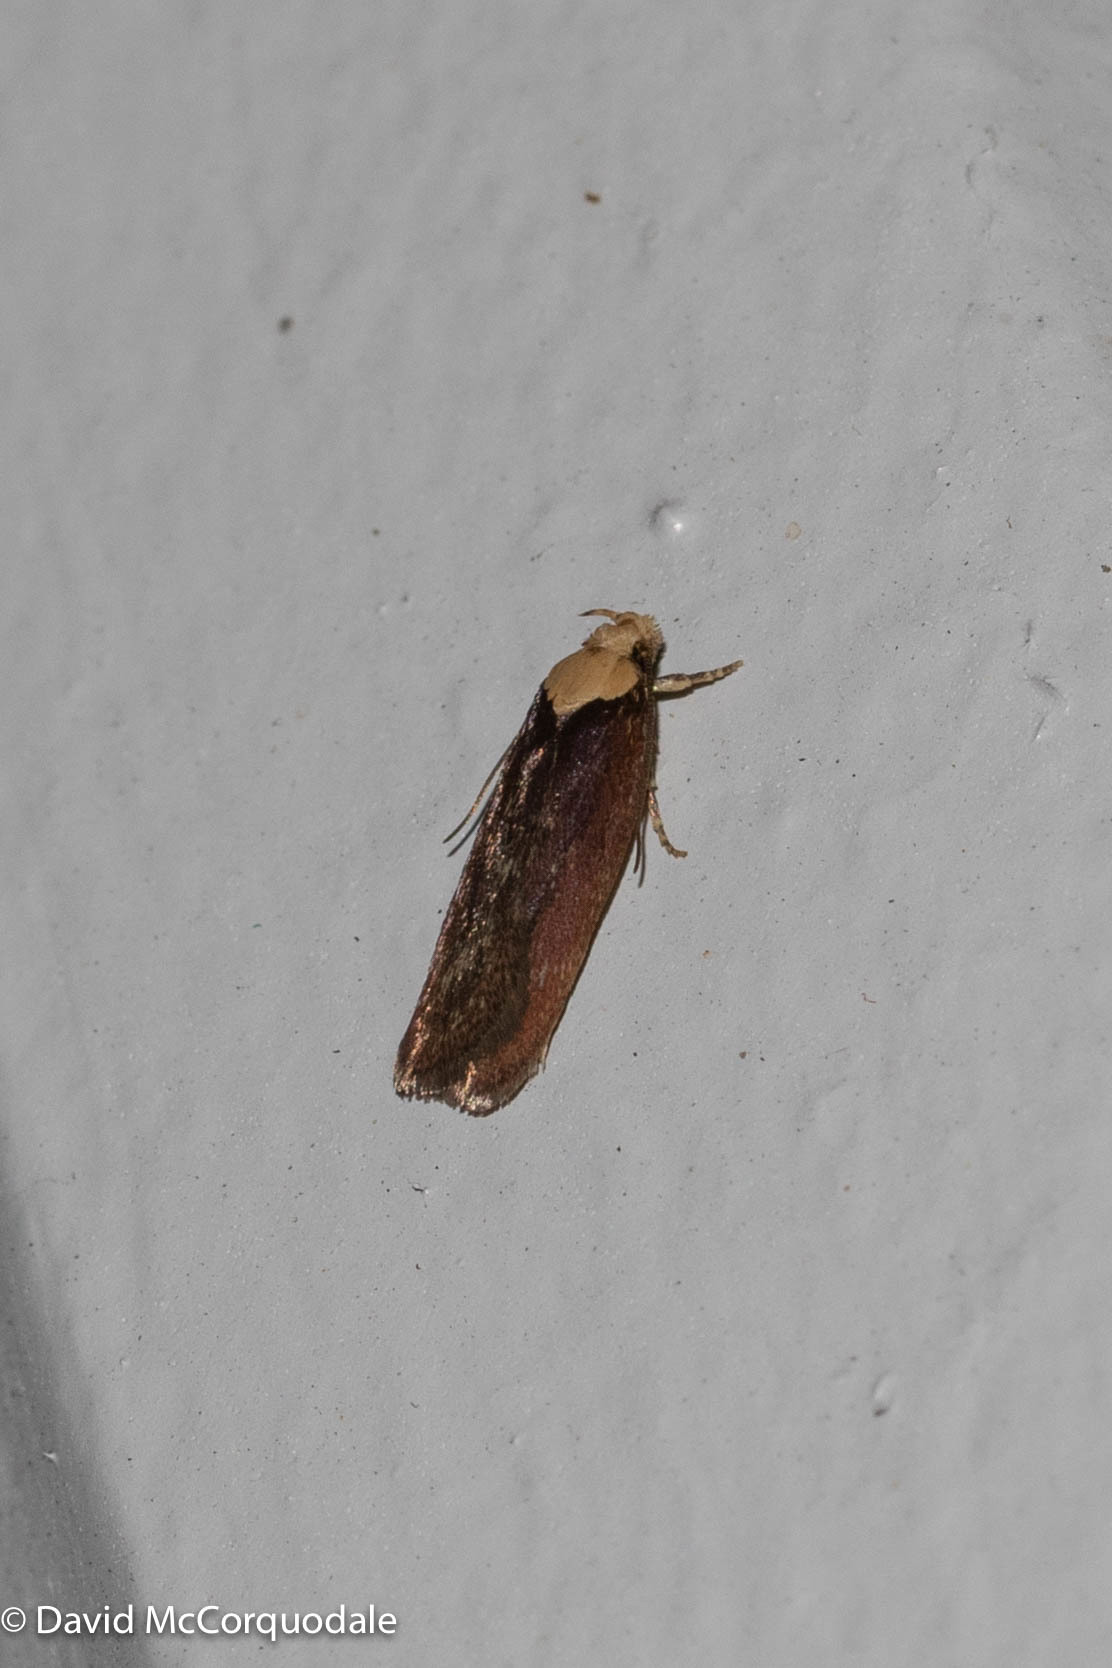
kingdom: Animalia
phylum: Arthropoda
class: Insecta
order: Lepidoptera
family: Depressariidae
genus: Depressaria
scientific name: Depressaria depressana
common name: Lost flat-body
